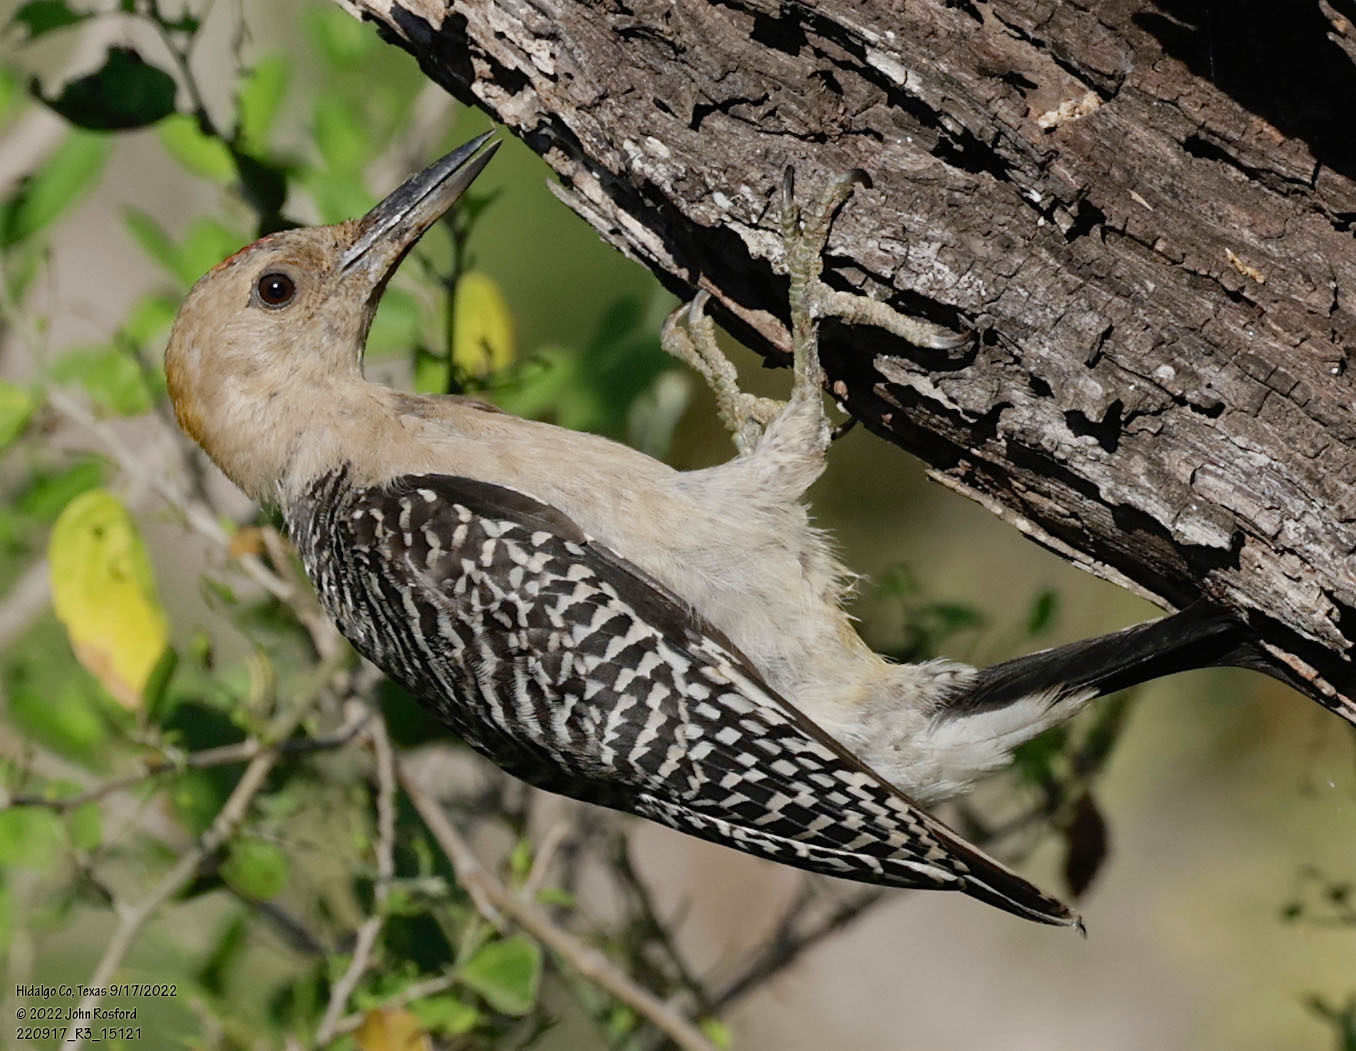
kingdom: Animalia
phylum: Chordata
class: Aves
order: Piciformes
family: Picidae
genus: Melanerpes
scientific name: Melanerpes aurifrons
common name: Golden-fronted woodpecker
